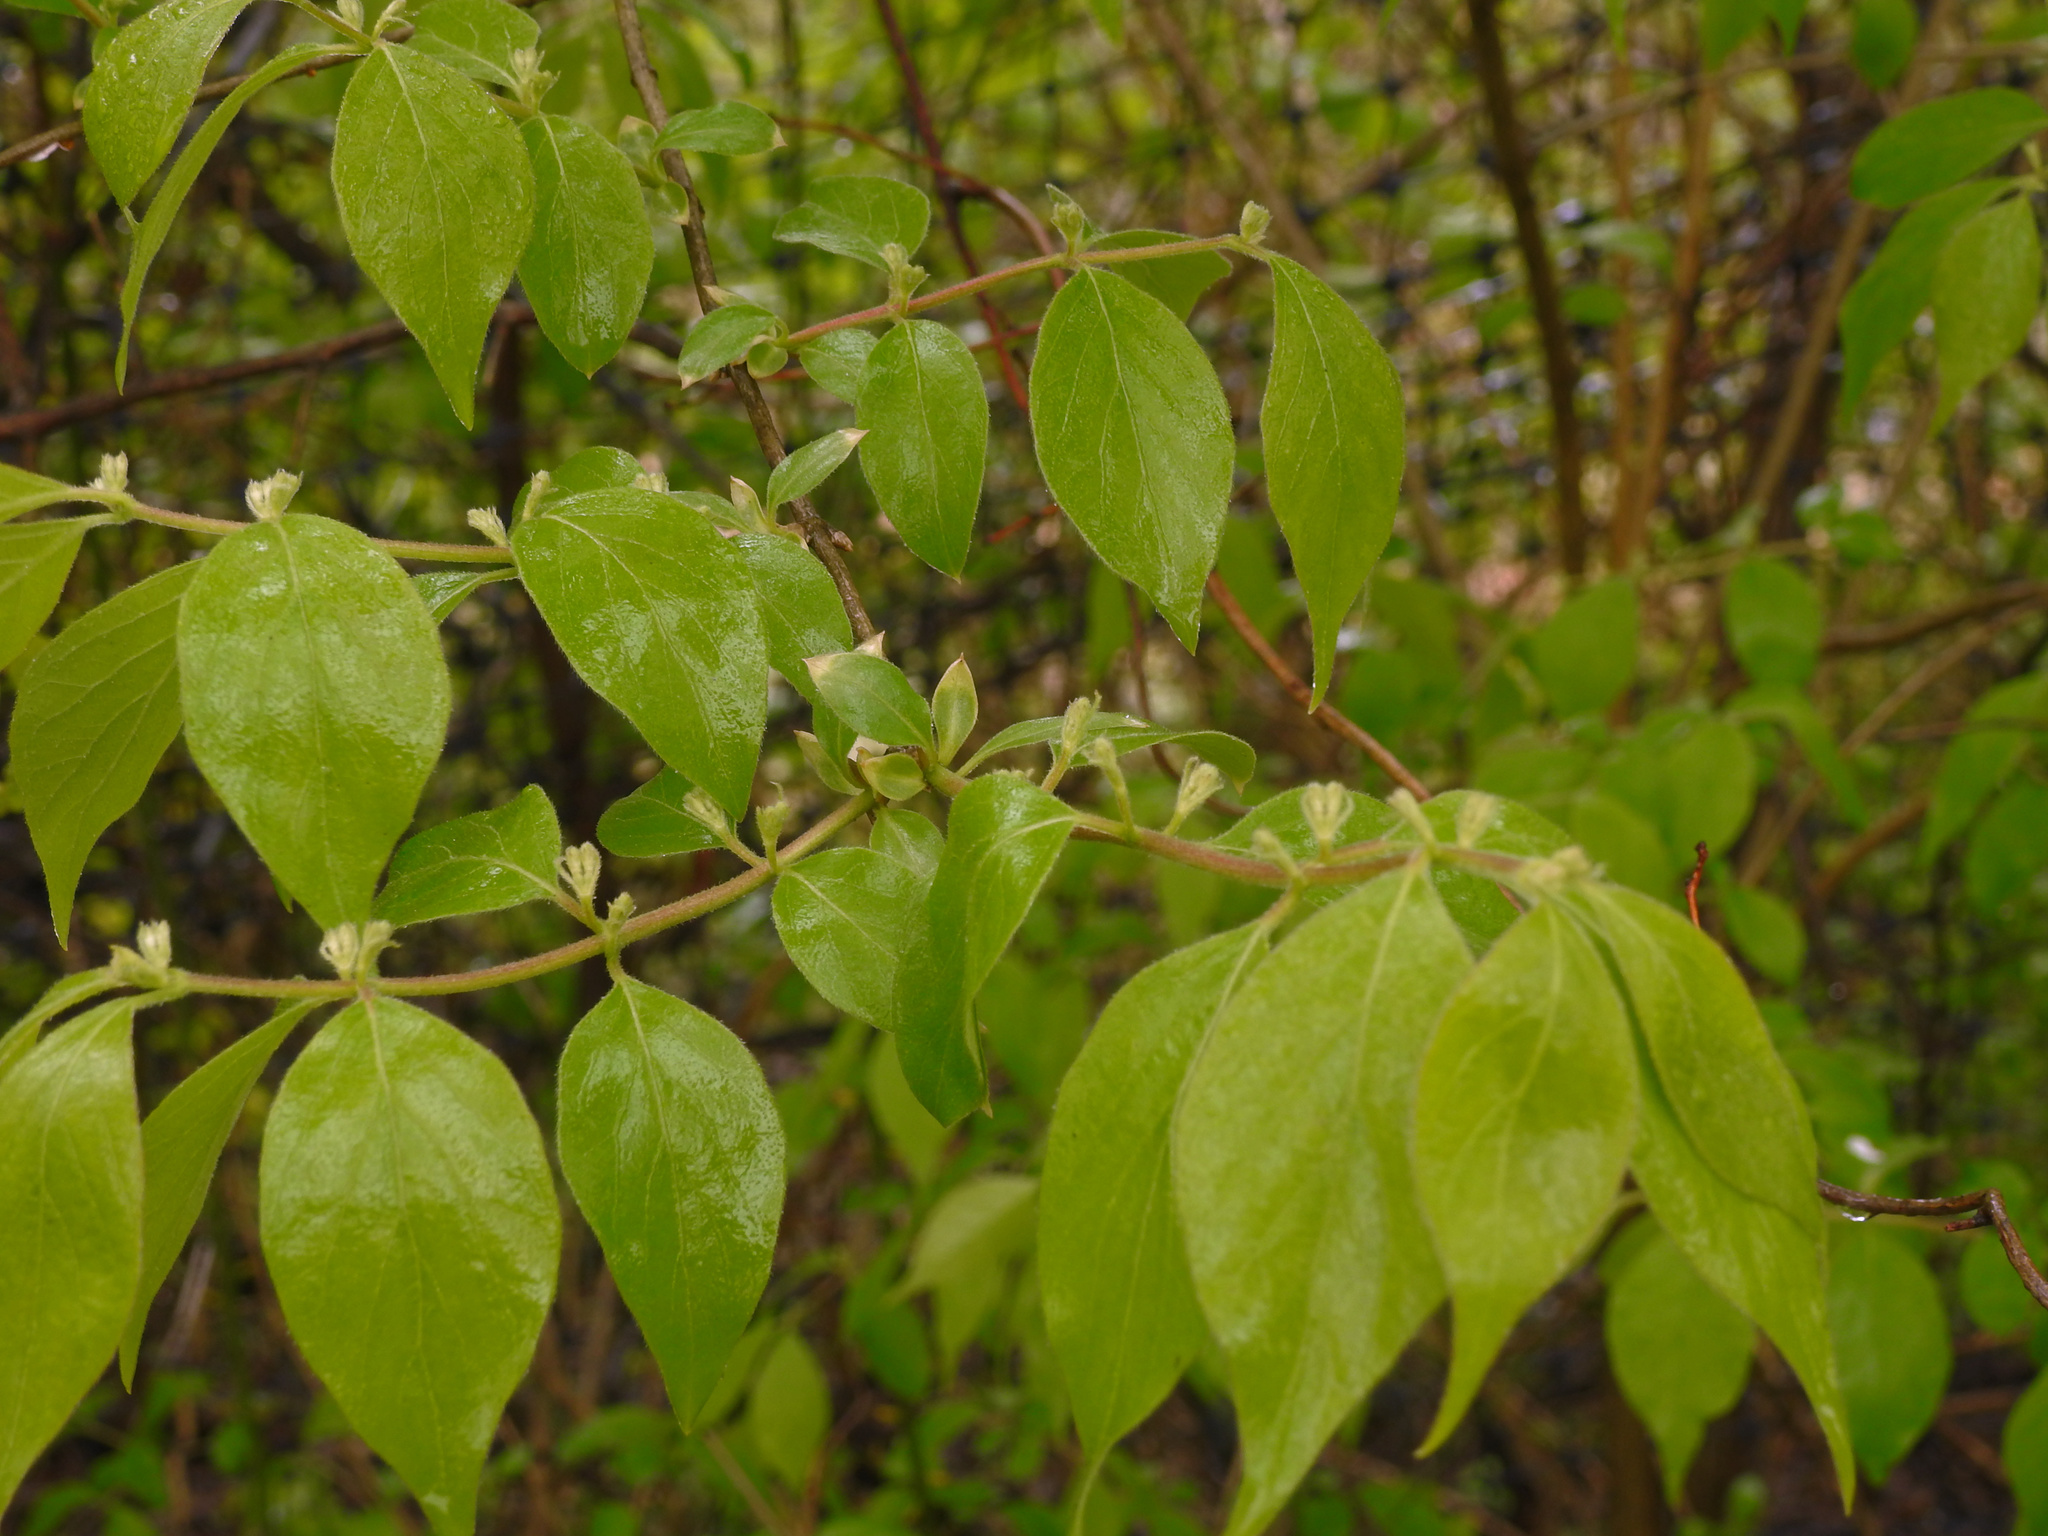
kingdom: Plantae
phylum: Tracheophyta
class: Magnoliopsida
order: Dipsacales
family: Caprifoliaceae
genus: Lonicera
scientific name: Lonicera maackii
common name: Amur honeysuckle
